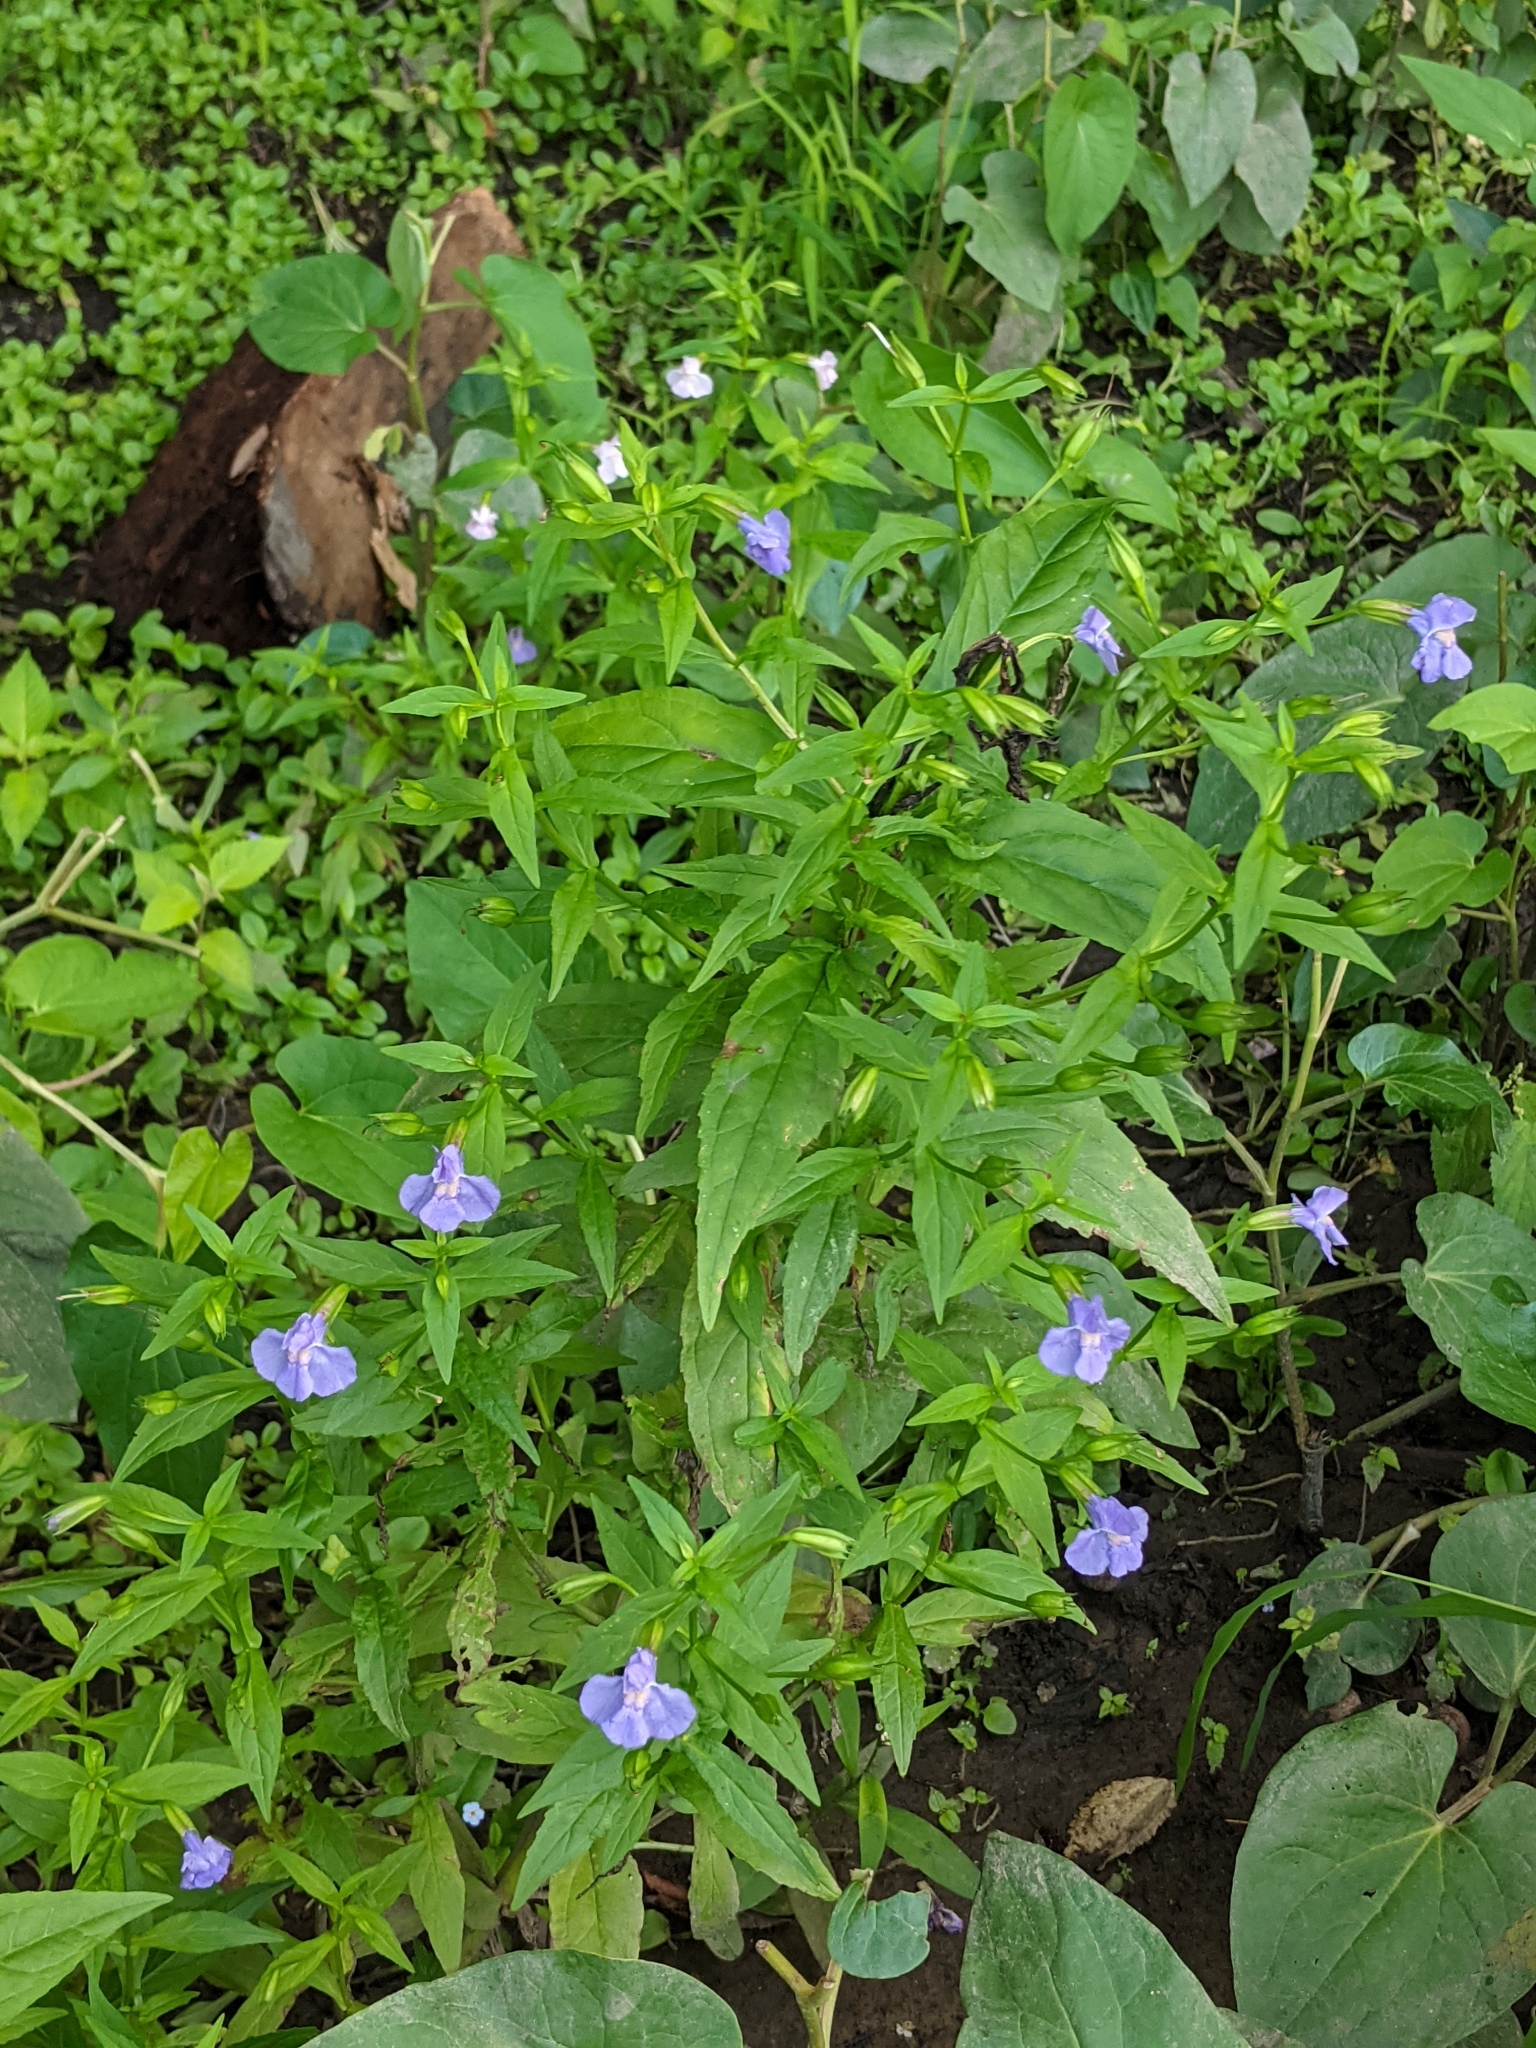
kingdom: Plantae
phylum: Tracheophyta
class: Magnoliopsida
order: Lamiales
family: Phrymaceae
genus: Mimulus
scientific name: Mimulus ringens
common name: Allegheny monkeyflower
